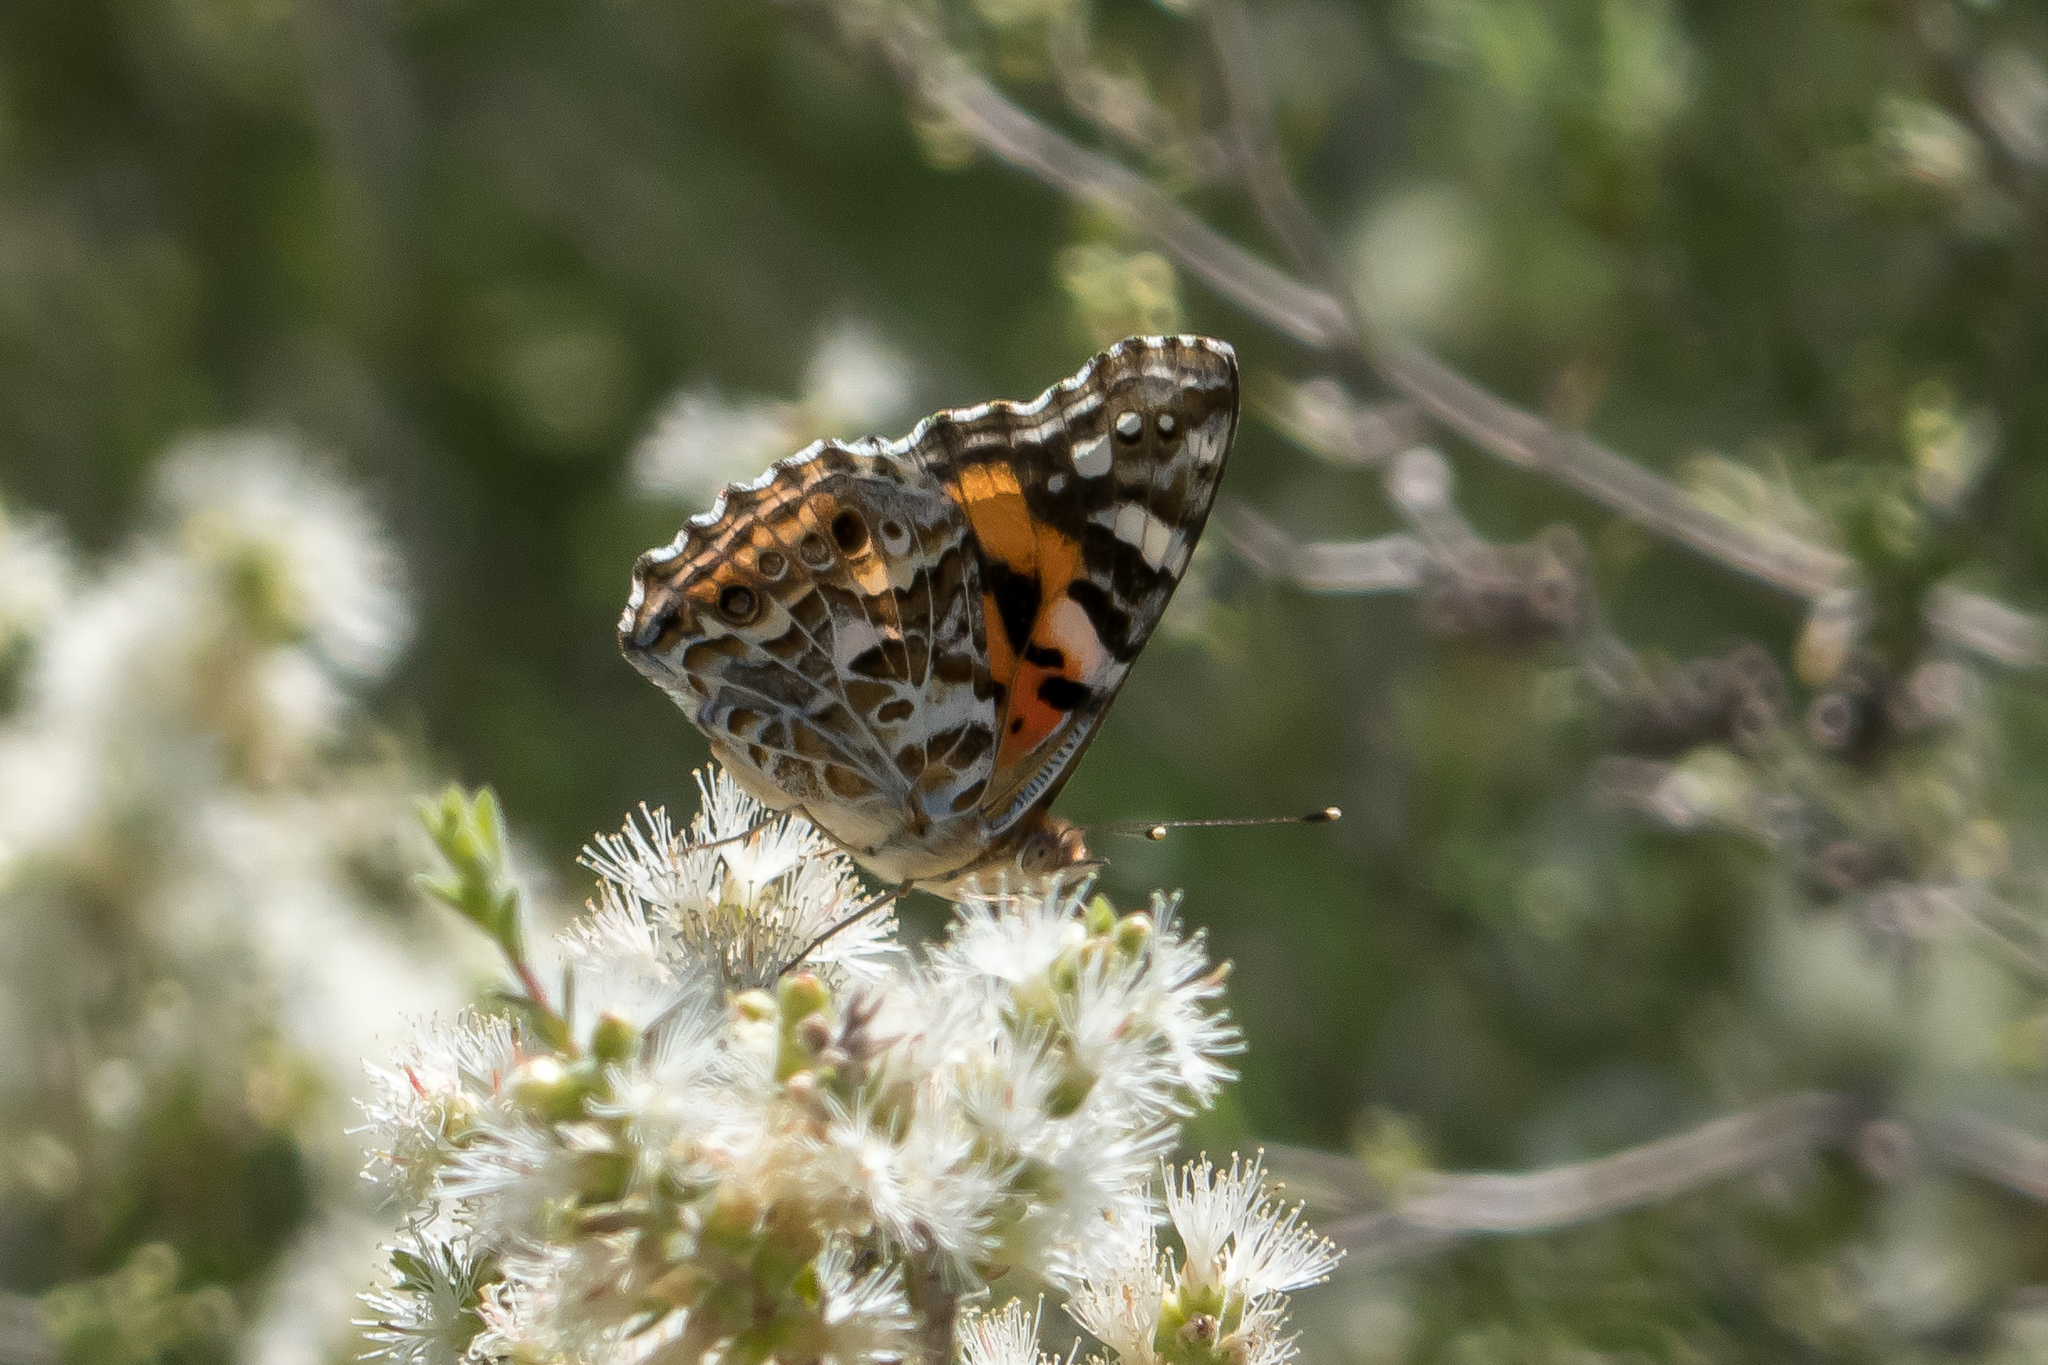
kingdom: Animalia
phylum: Arthropoda
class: Insecta
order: Lepidoptera
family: Nymphalidae
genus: Vanessa
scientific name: Vanessa kershawi
